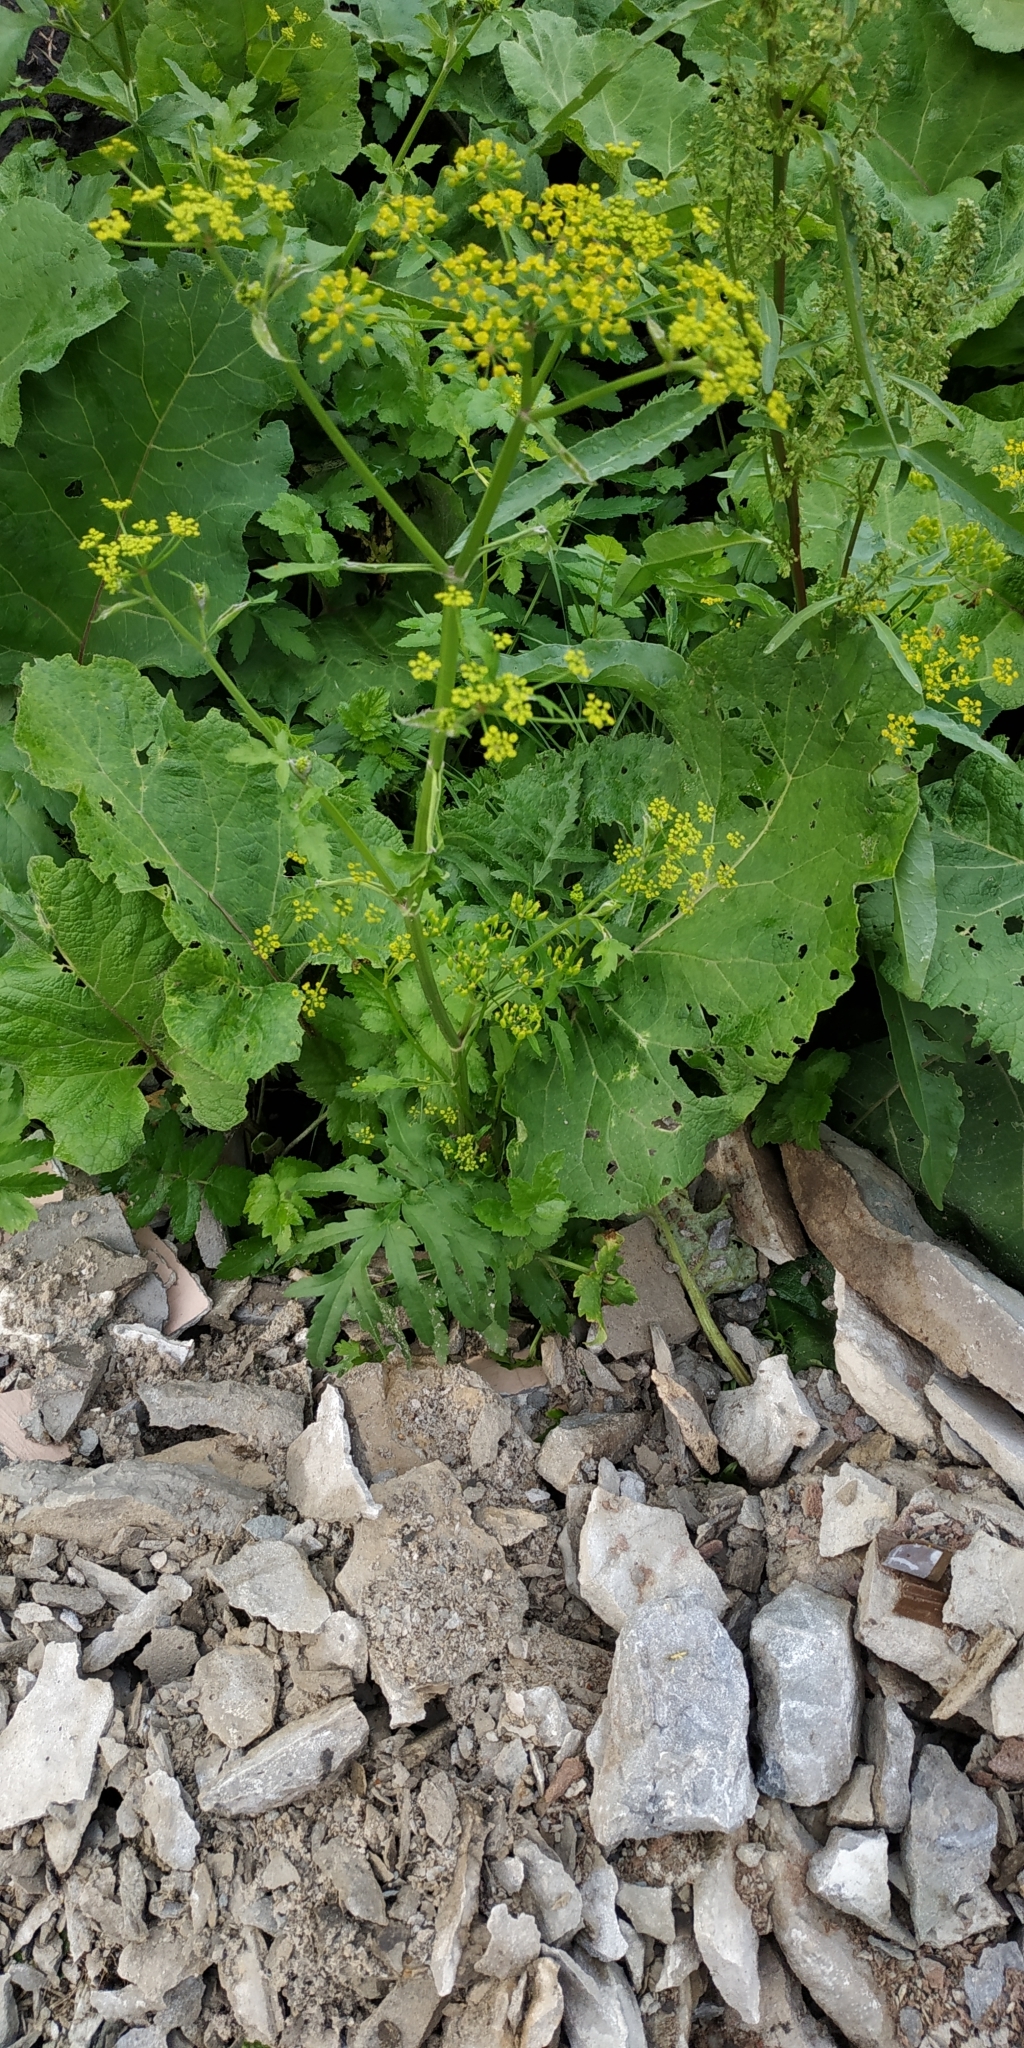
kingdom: Plantae
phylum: Tracheophyta
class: Magnoliopsida
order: Apiales
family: Apiaceae
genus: Pastinaca
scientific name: Pastinaca sativa
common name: Wild parsnip
